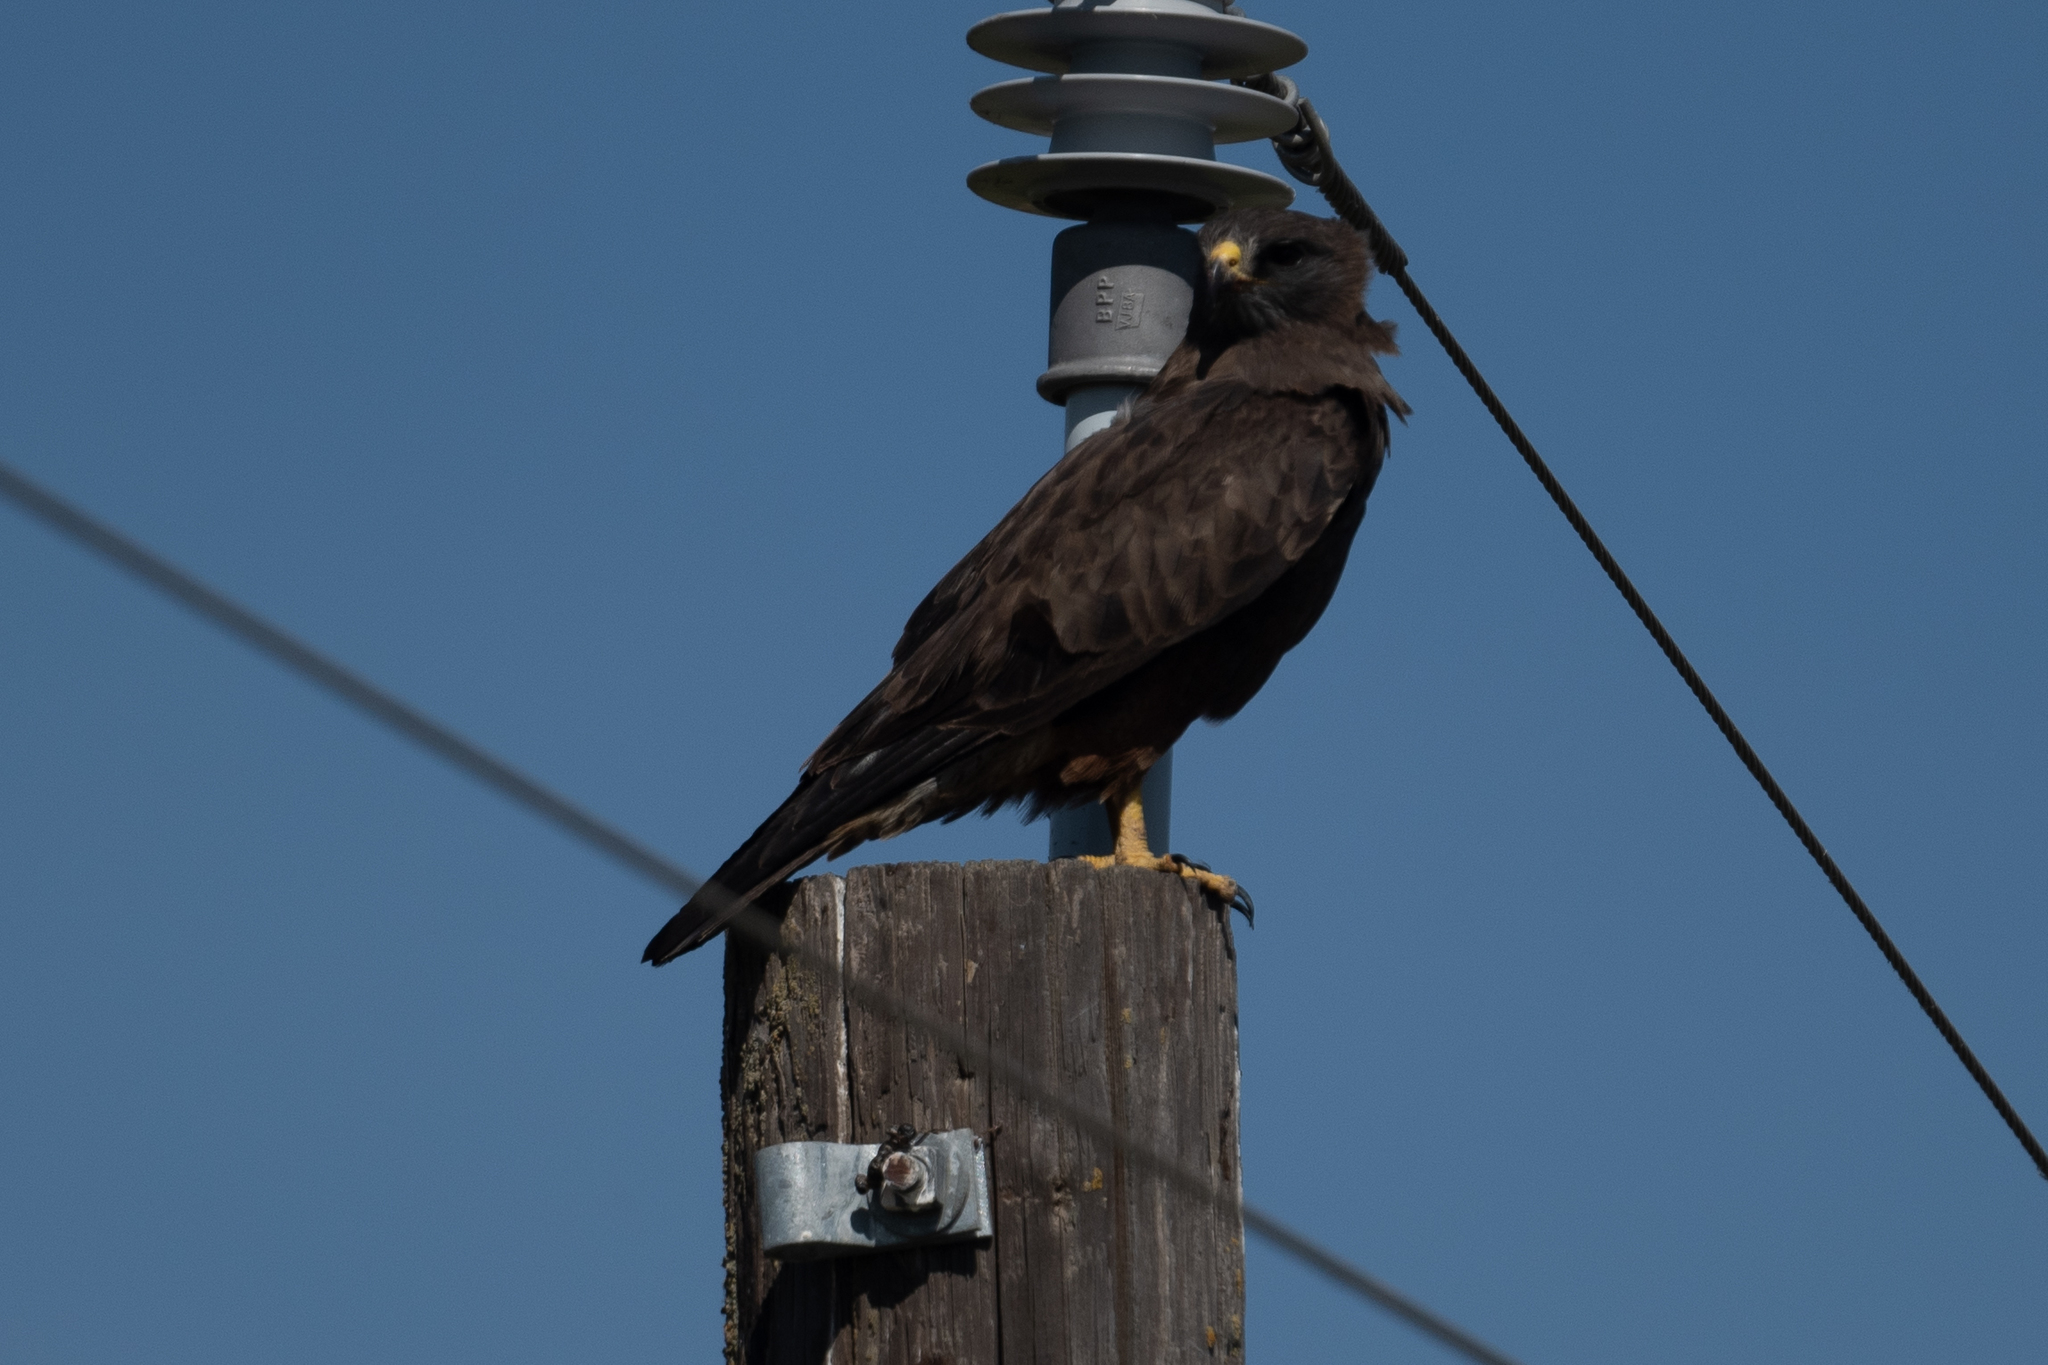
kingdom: Animalia
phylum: Chordata
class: Aves
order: Accipitriformes
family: Accipitridae
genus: Buteo
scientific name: Buteo swainsoni
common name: Swainson's hawk
